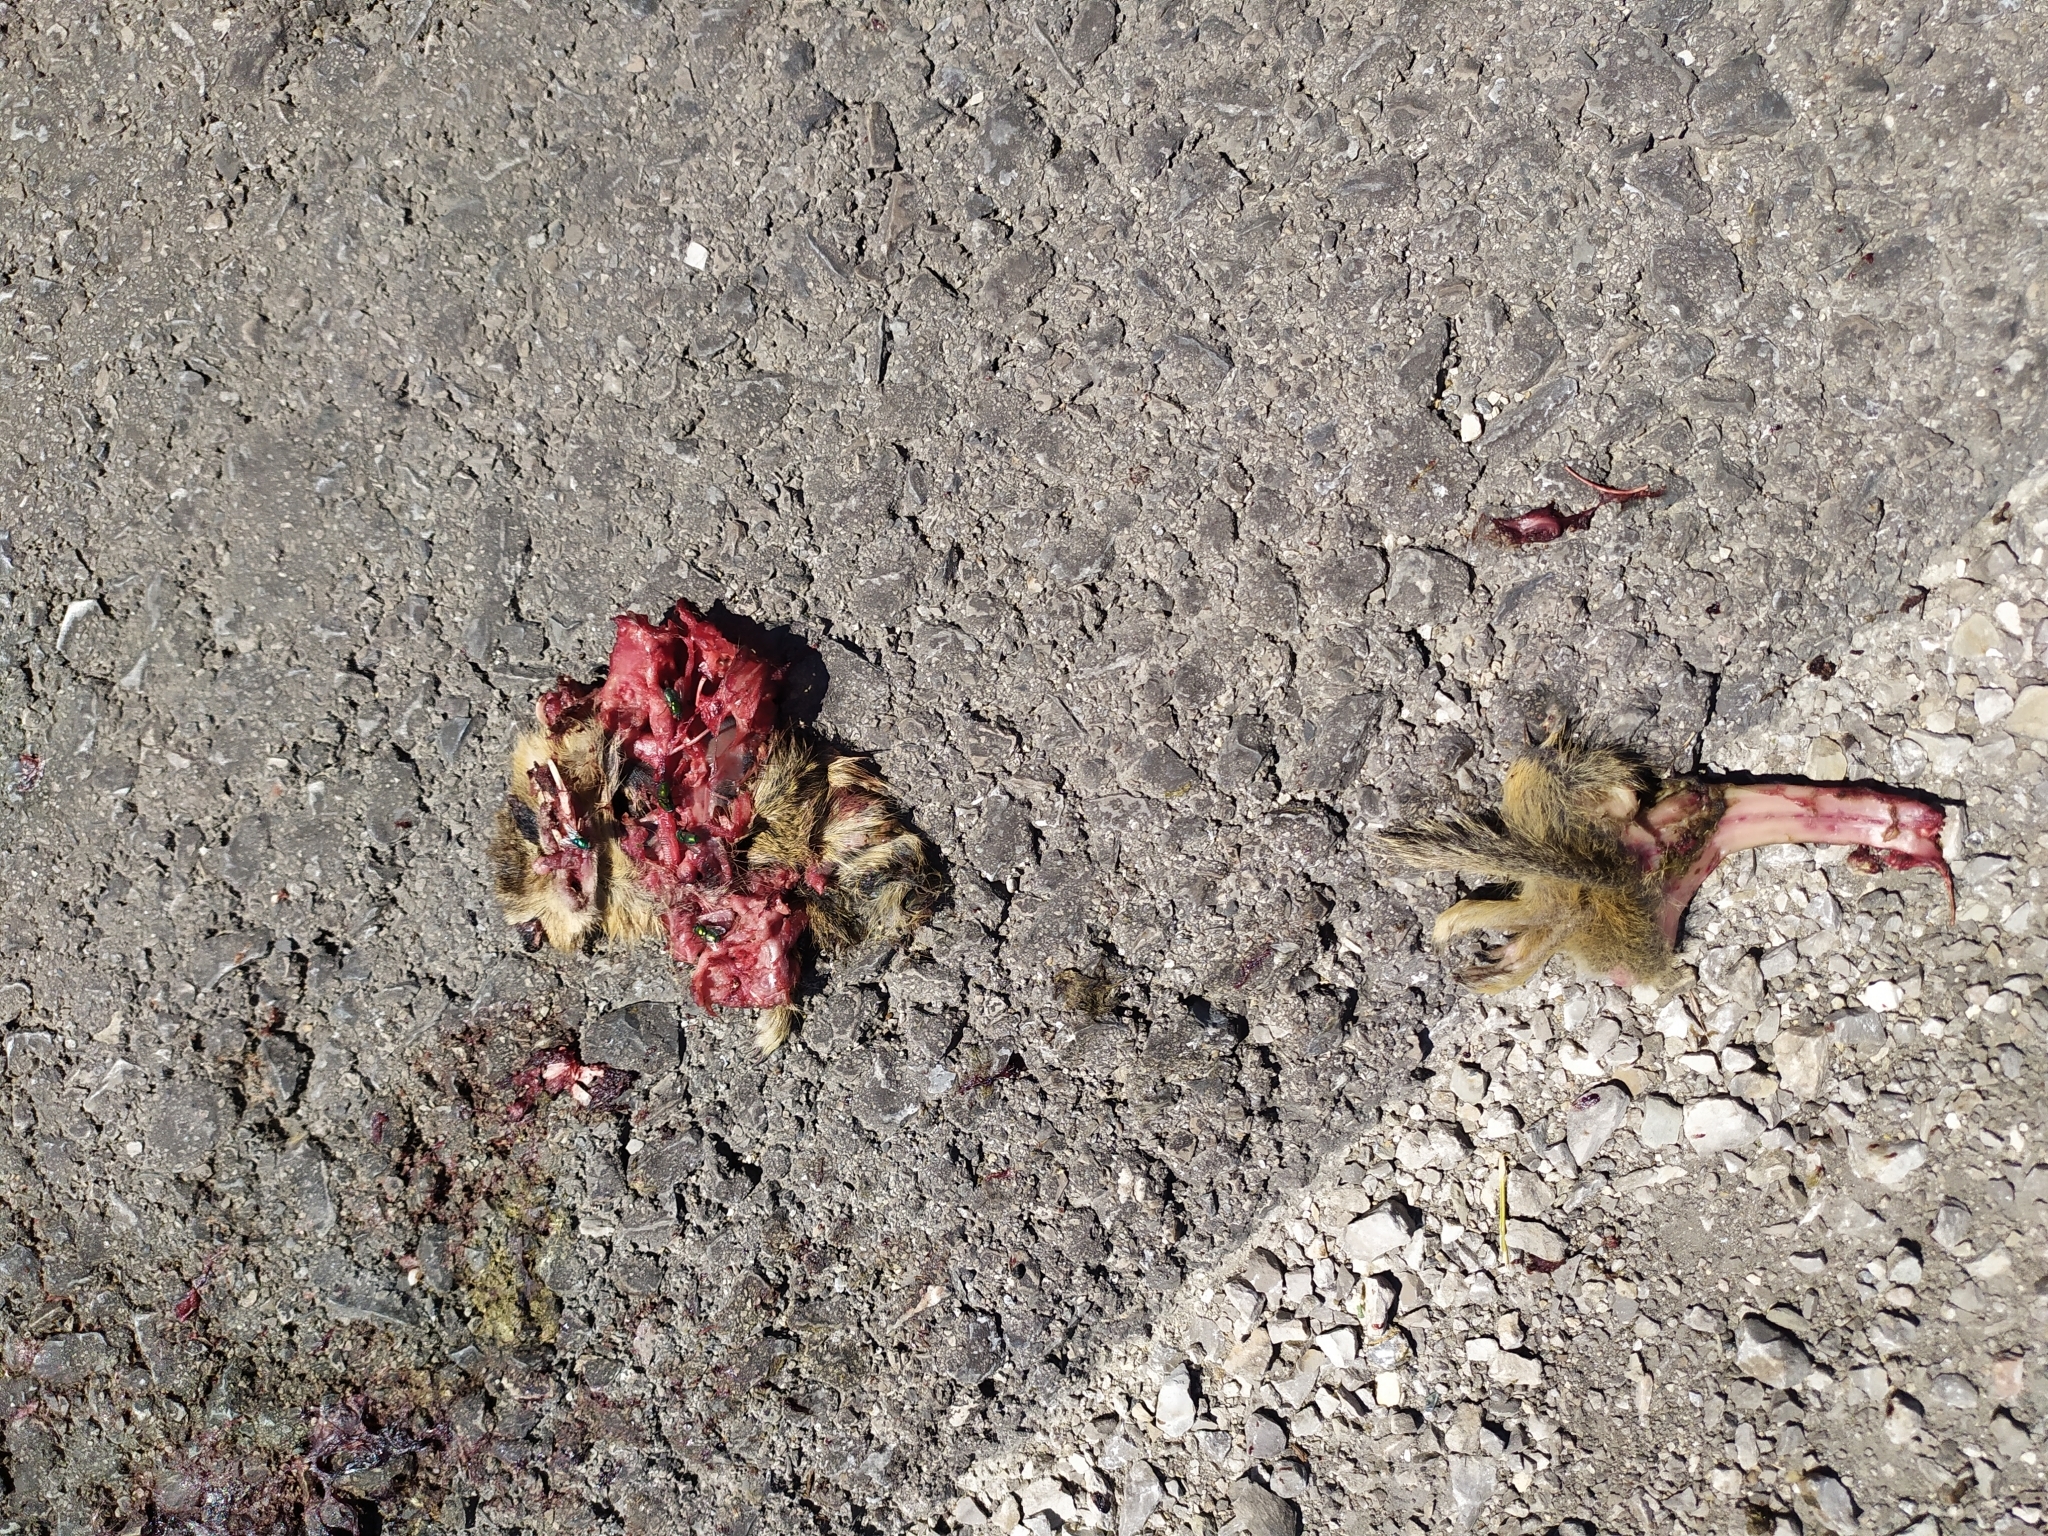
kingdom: Animalia
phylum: Chordata
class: Mammalia
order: Rodentia
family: Sciuridae
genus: Spermophilus
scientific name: Spermophilus citellus
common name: European ground squirrel
